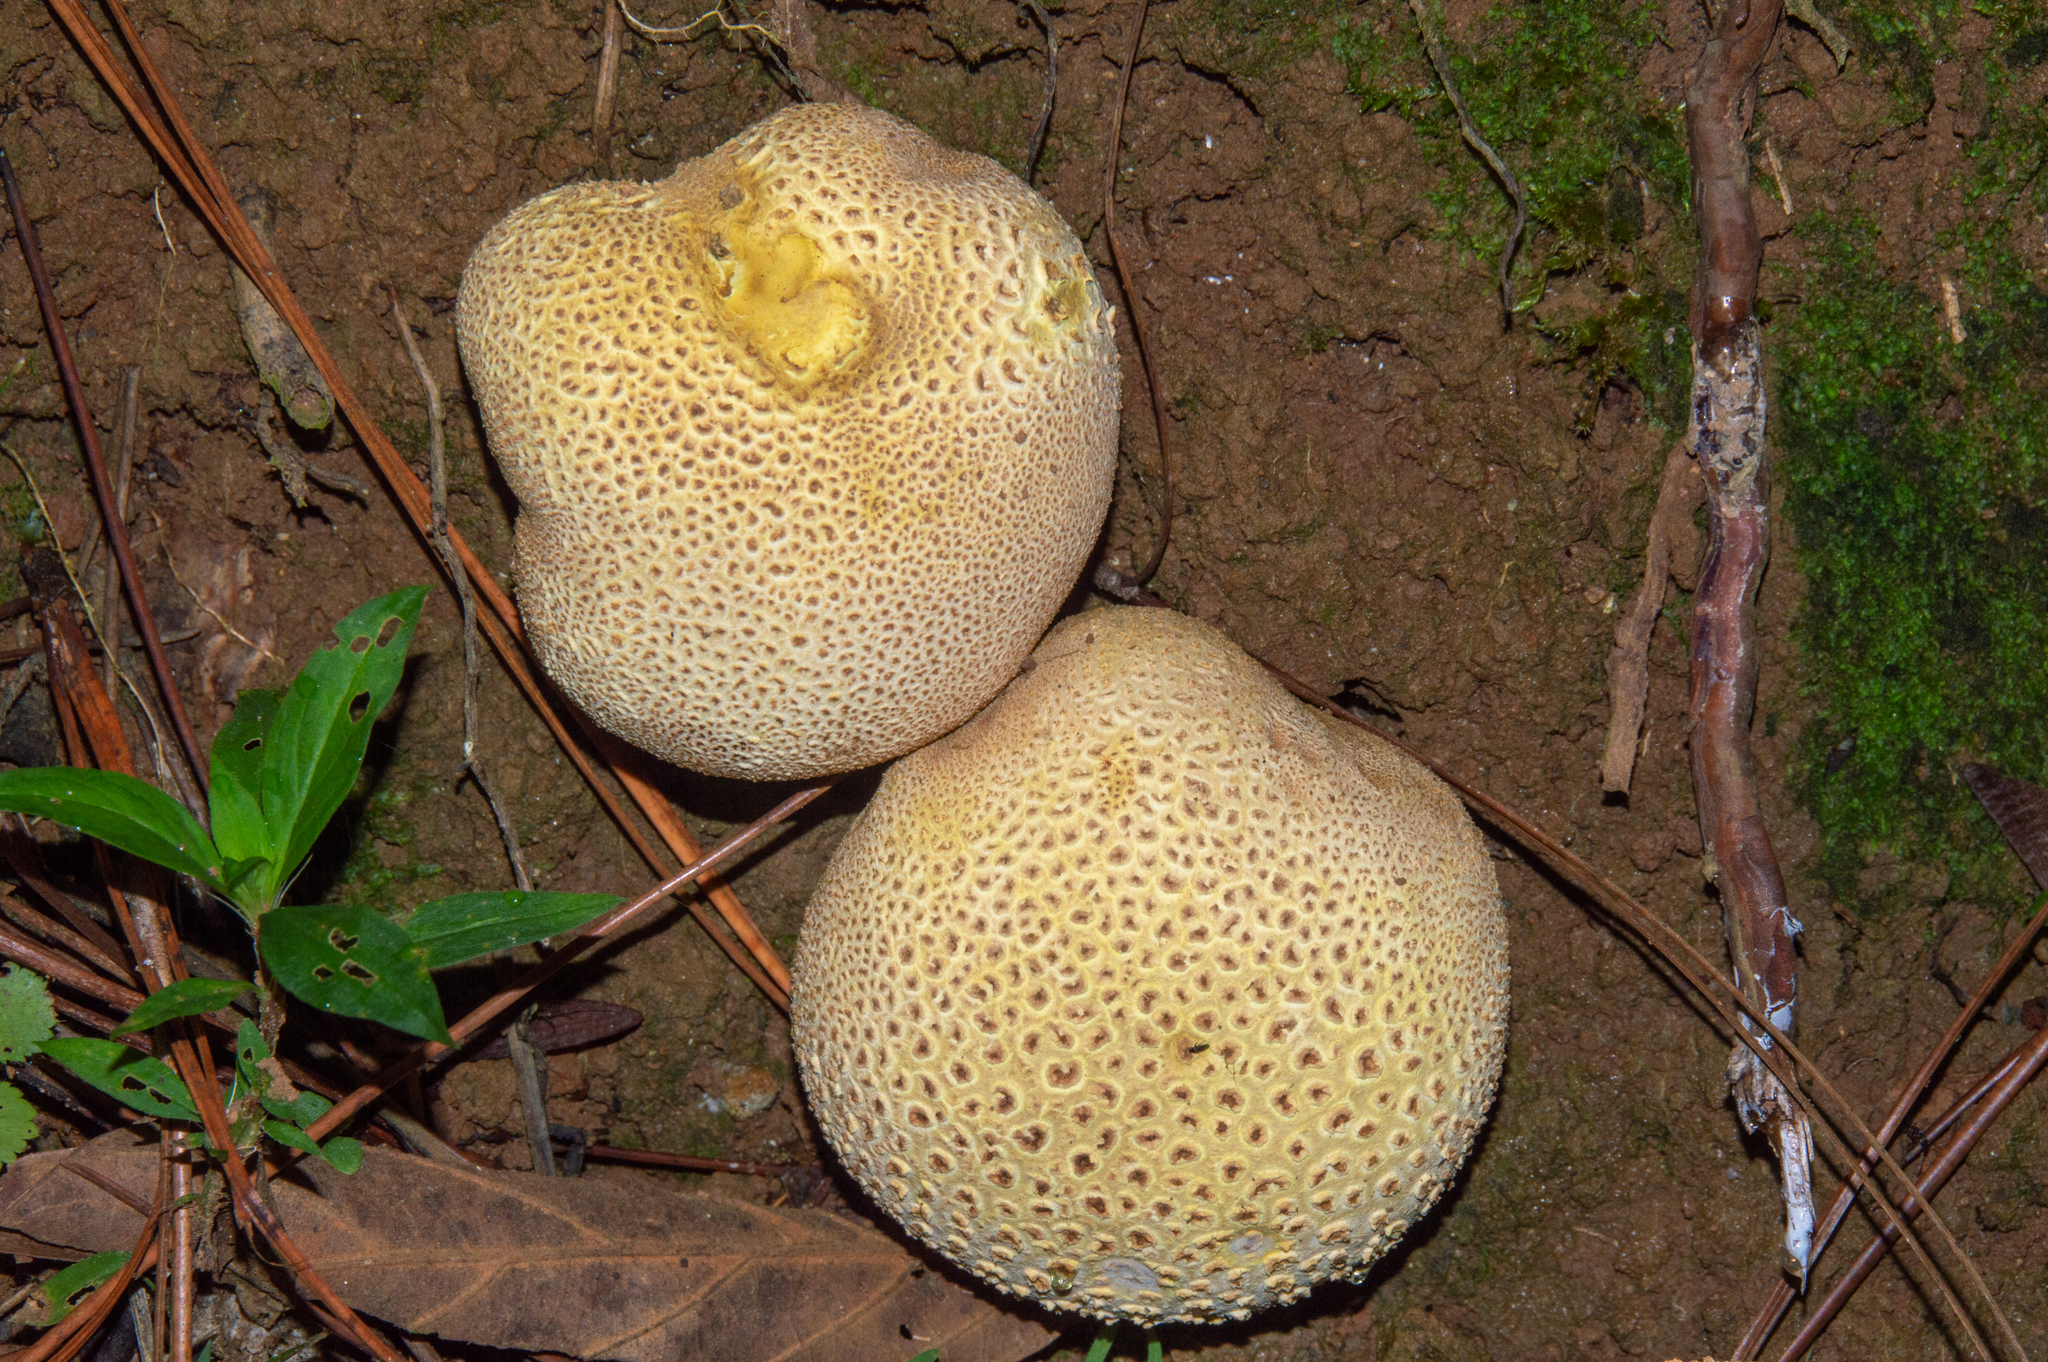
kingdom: Fungi
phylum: Basidiomycota
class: Agaricomycetes
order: Boletales
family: Sclerodermataceae
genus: Scleroderma
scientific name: Scleroderma citrinum
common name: Common earthball
